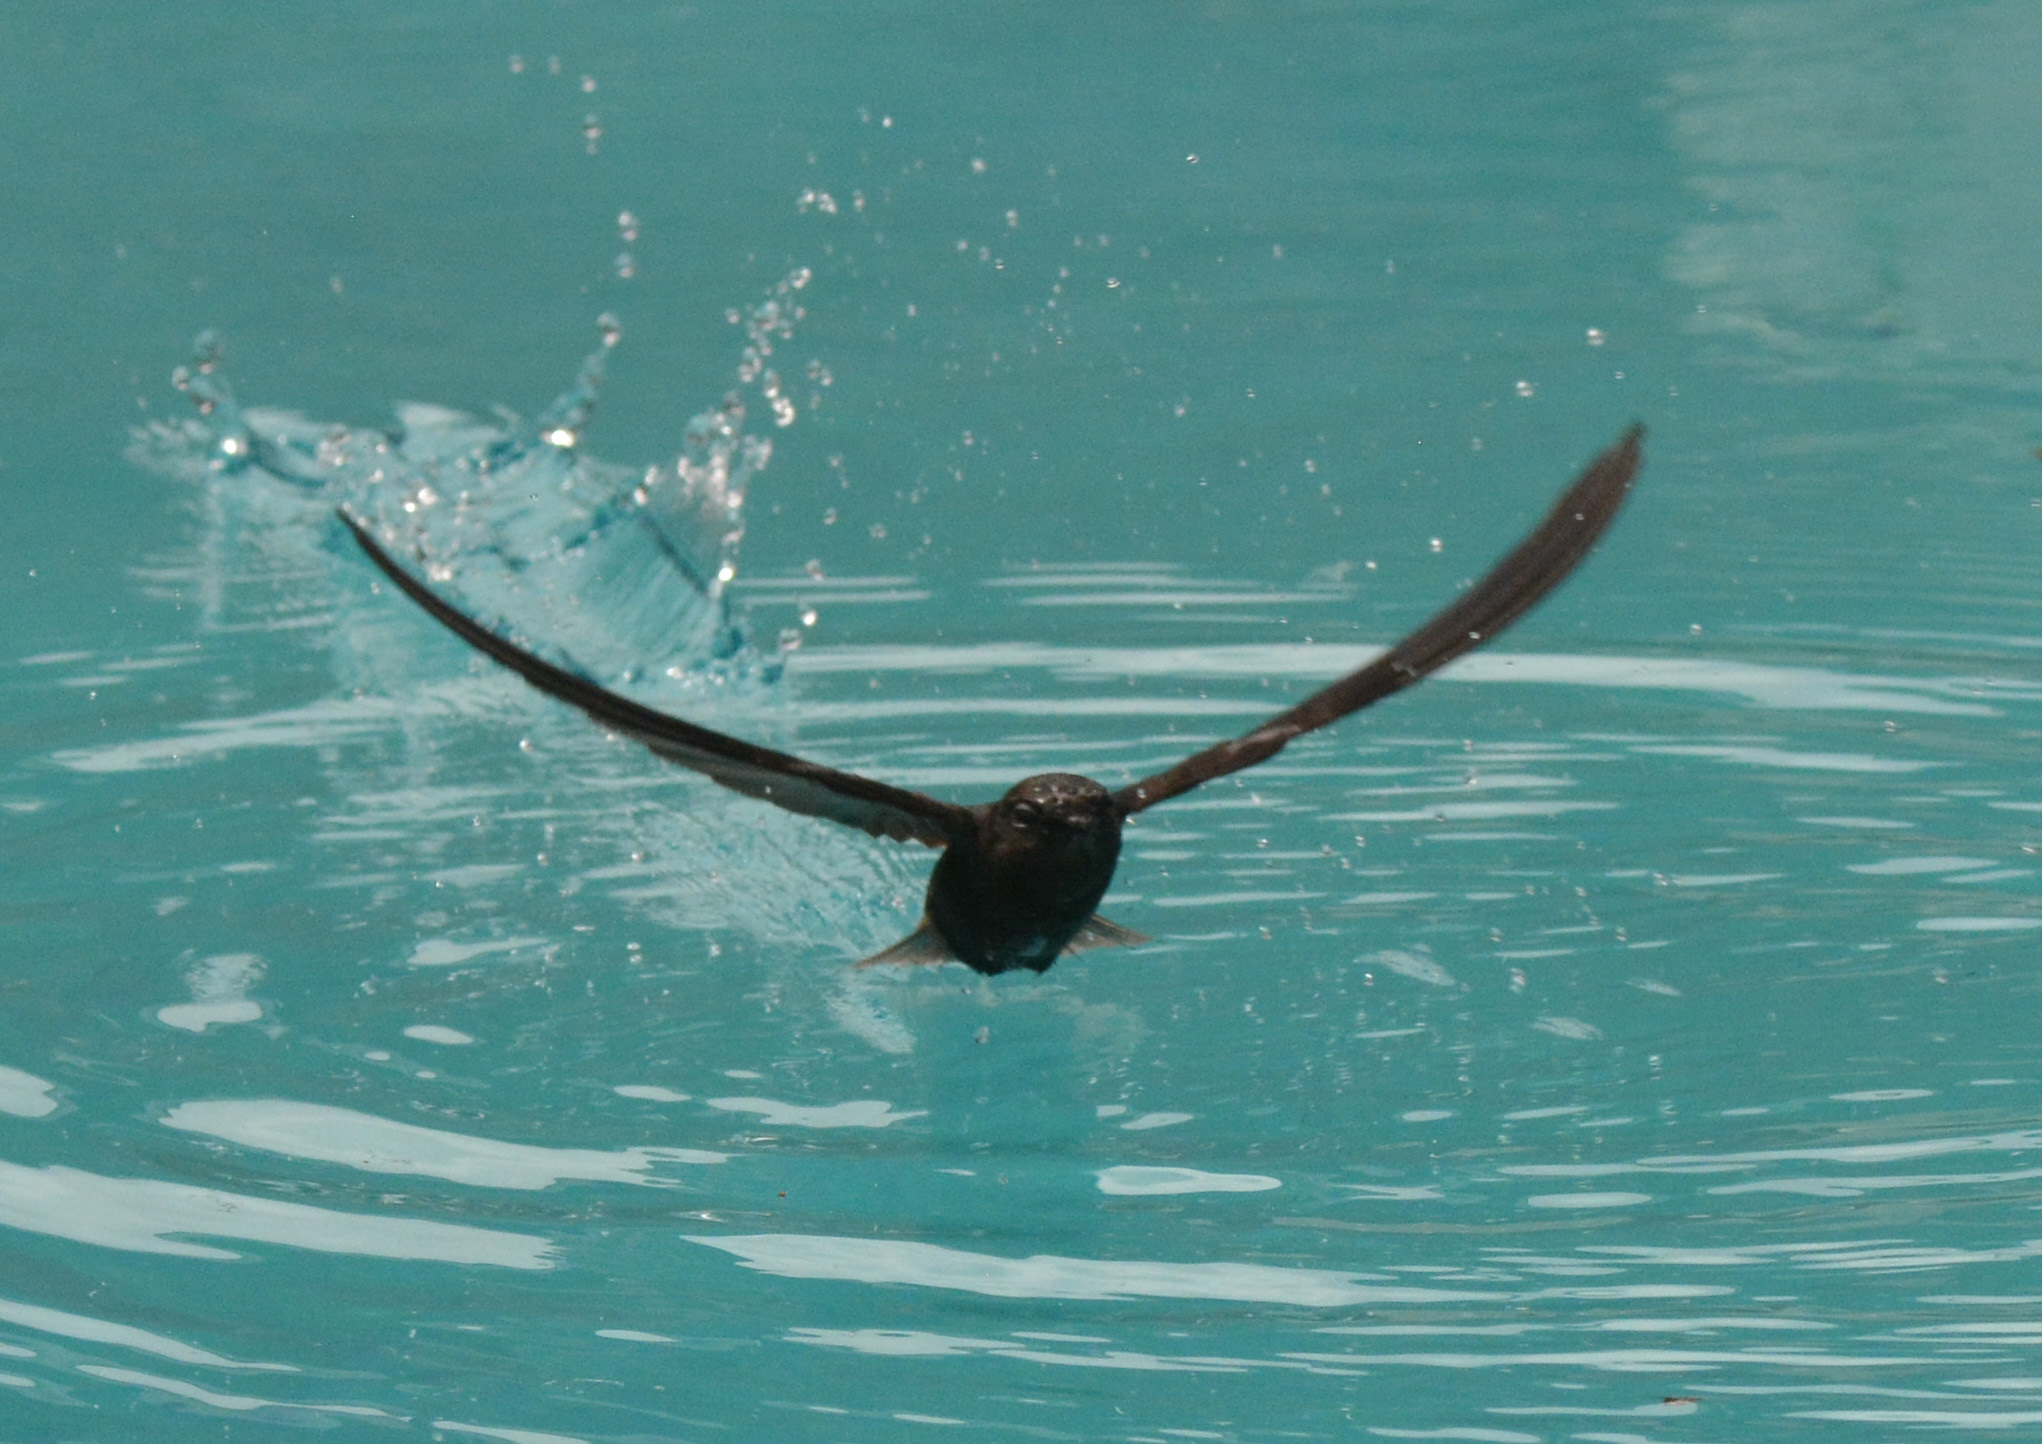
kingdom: Animalia
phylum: Chordata
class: Aves
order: Apodiformes
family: Apodidae
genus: Chaetura
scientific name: Chaetura brachyura
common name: Short-tailed swift
